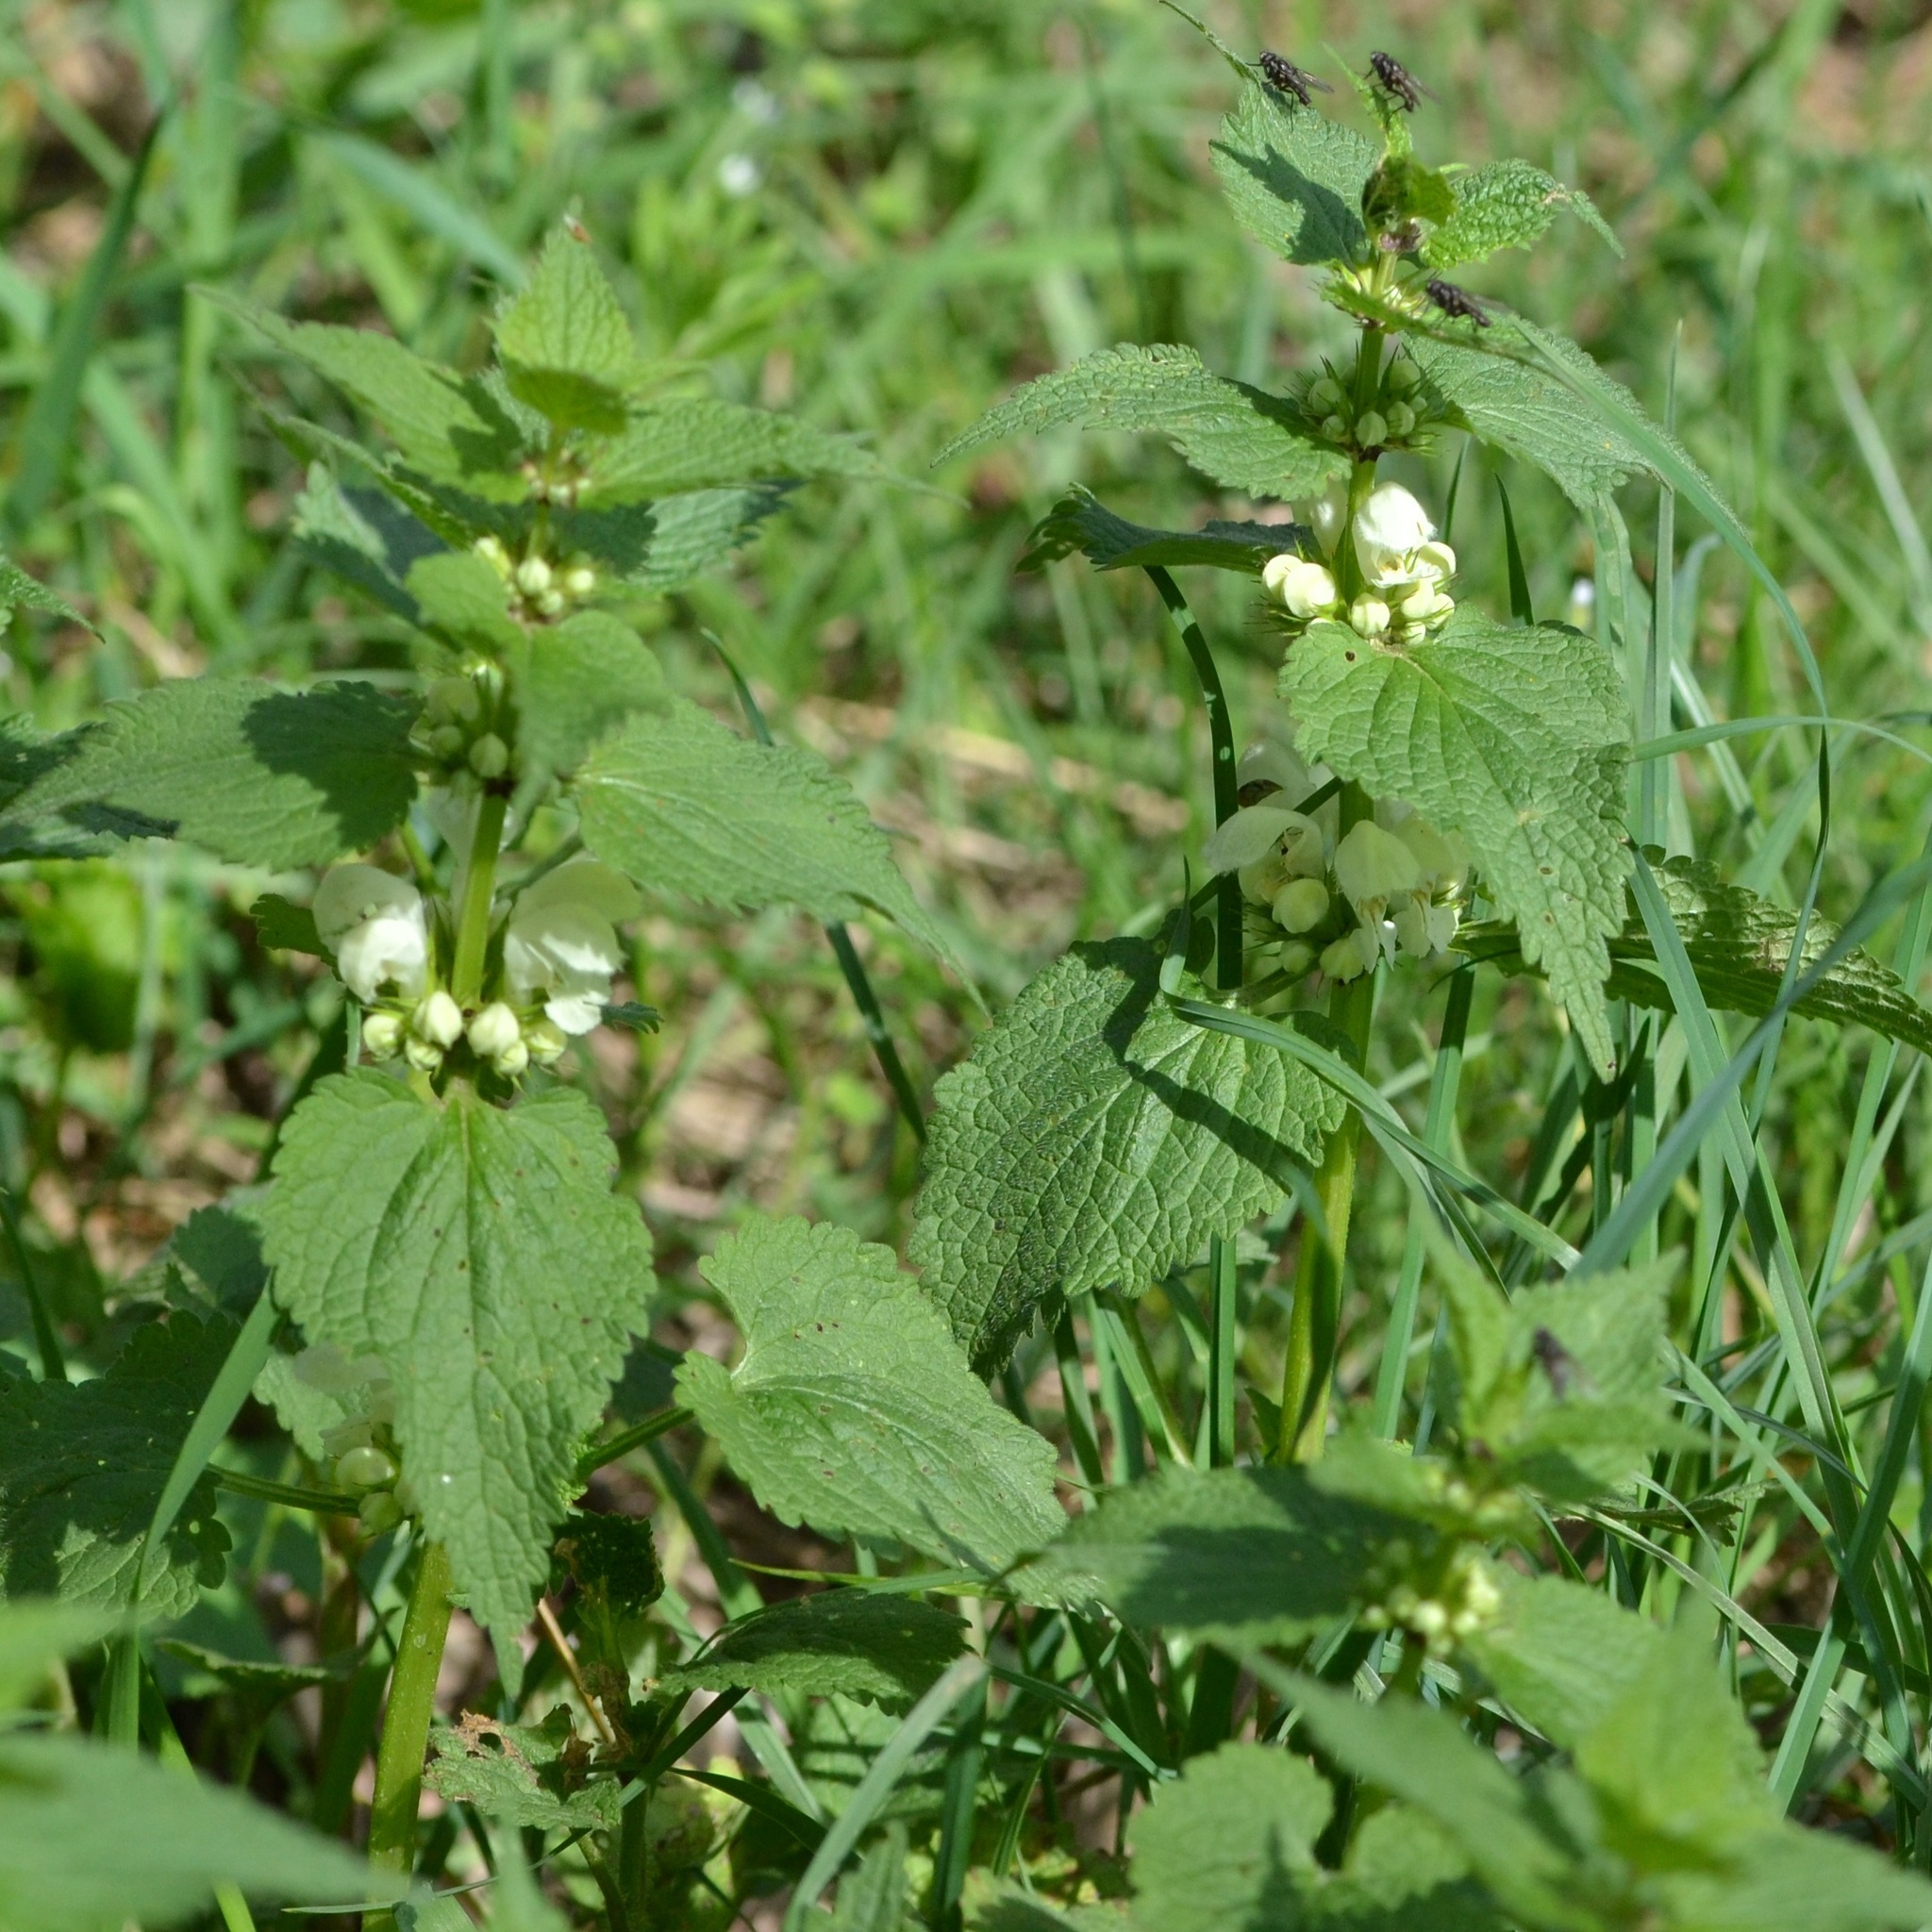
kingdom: Plantae
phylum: Tracheophyta
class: Magnoliopsida
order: Lamiales
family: Lamiaceae
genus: Lamium
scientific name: Lamium album
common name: White dead-nettle
